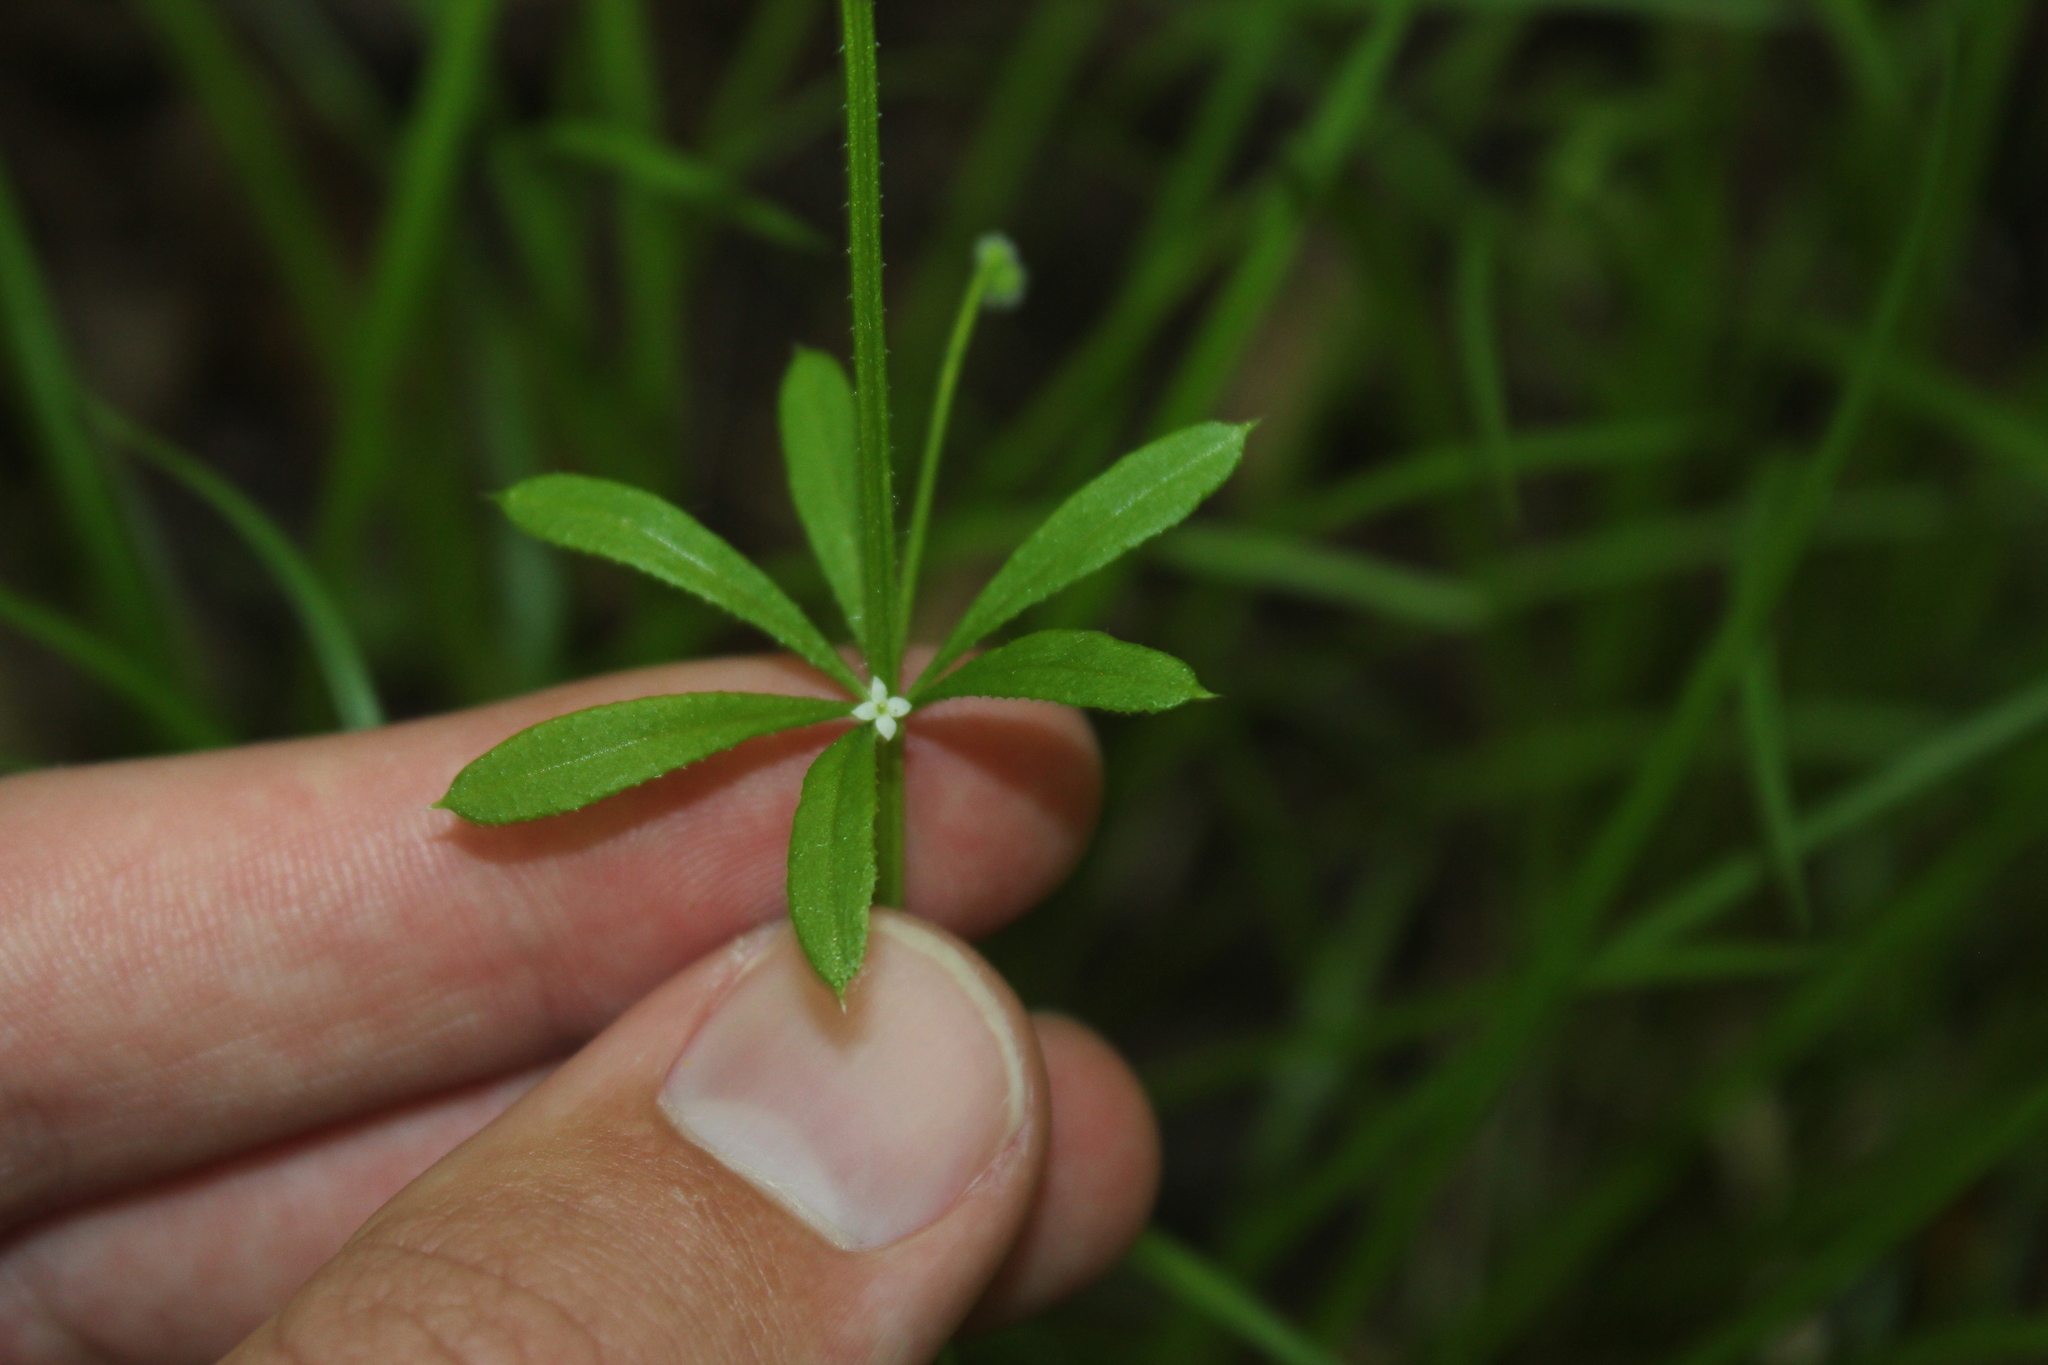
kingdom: Plantae
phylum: Tracheophyta
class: Magnoliopsida
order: Gentianales
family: Rubiaceae
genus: Galium
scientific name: Galium aparine
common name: Cleavers
